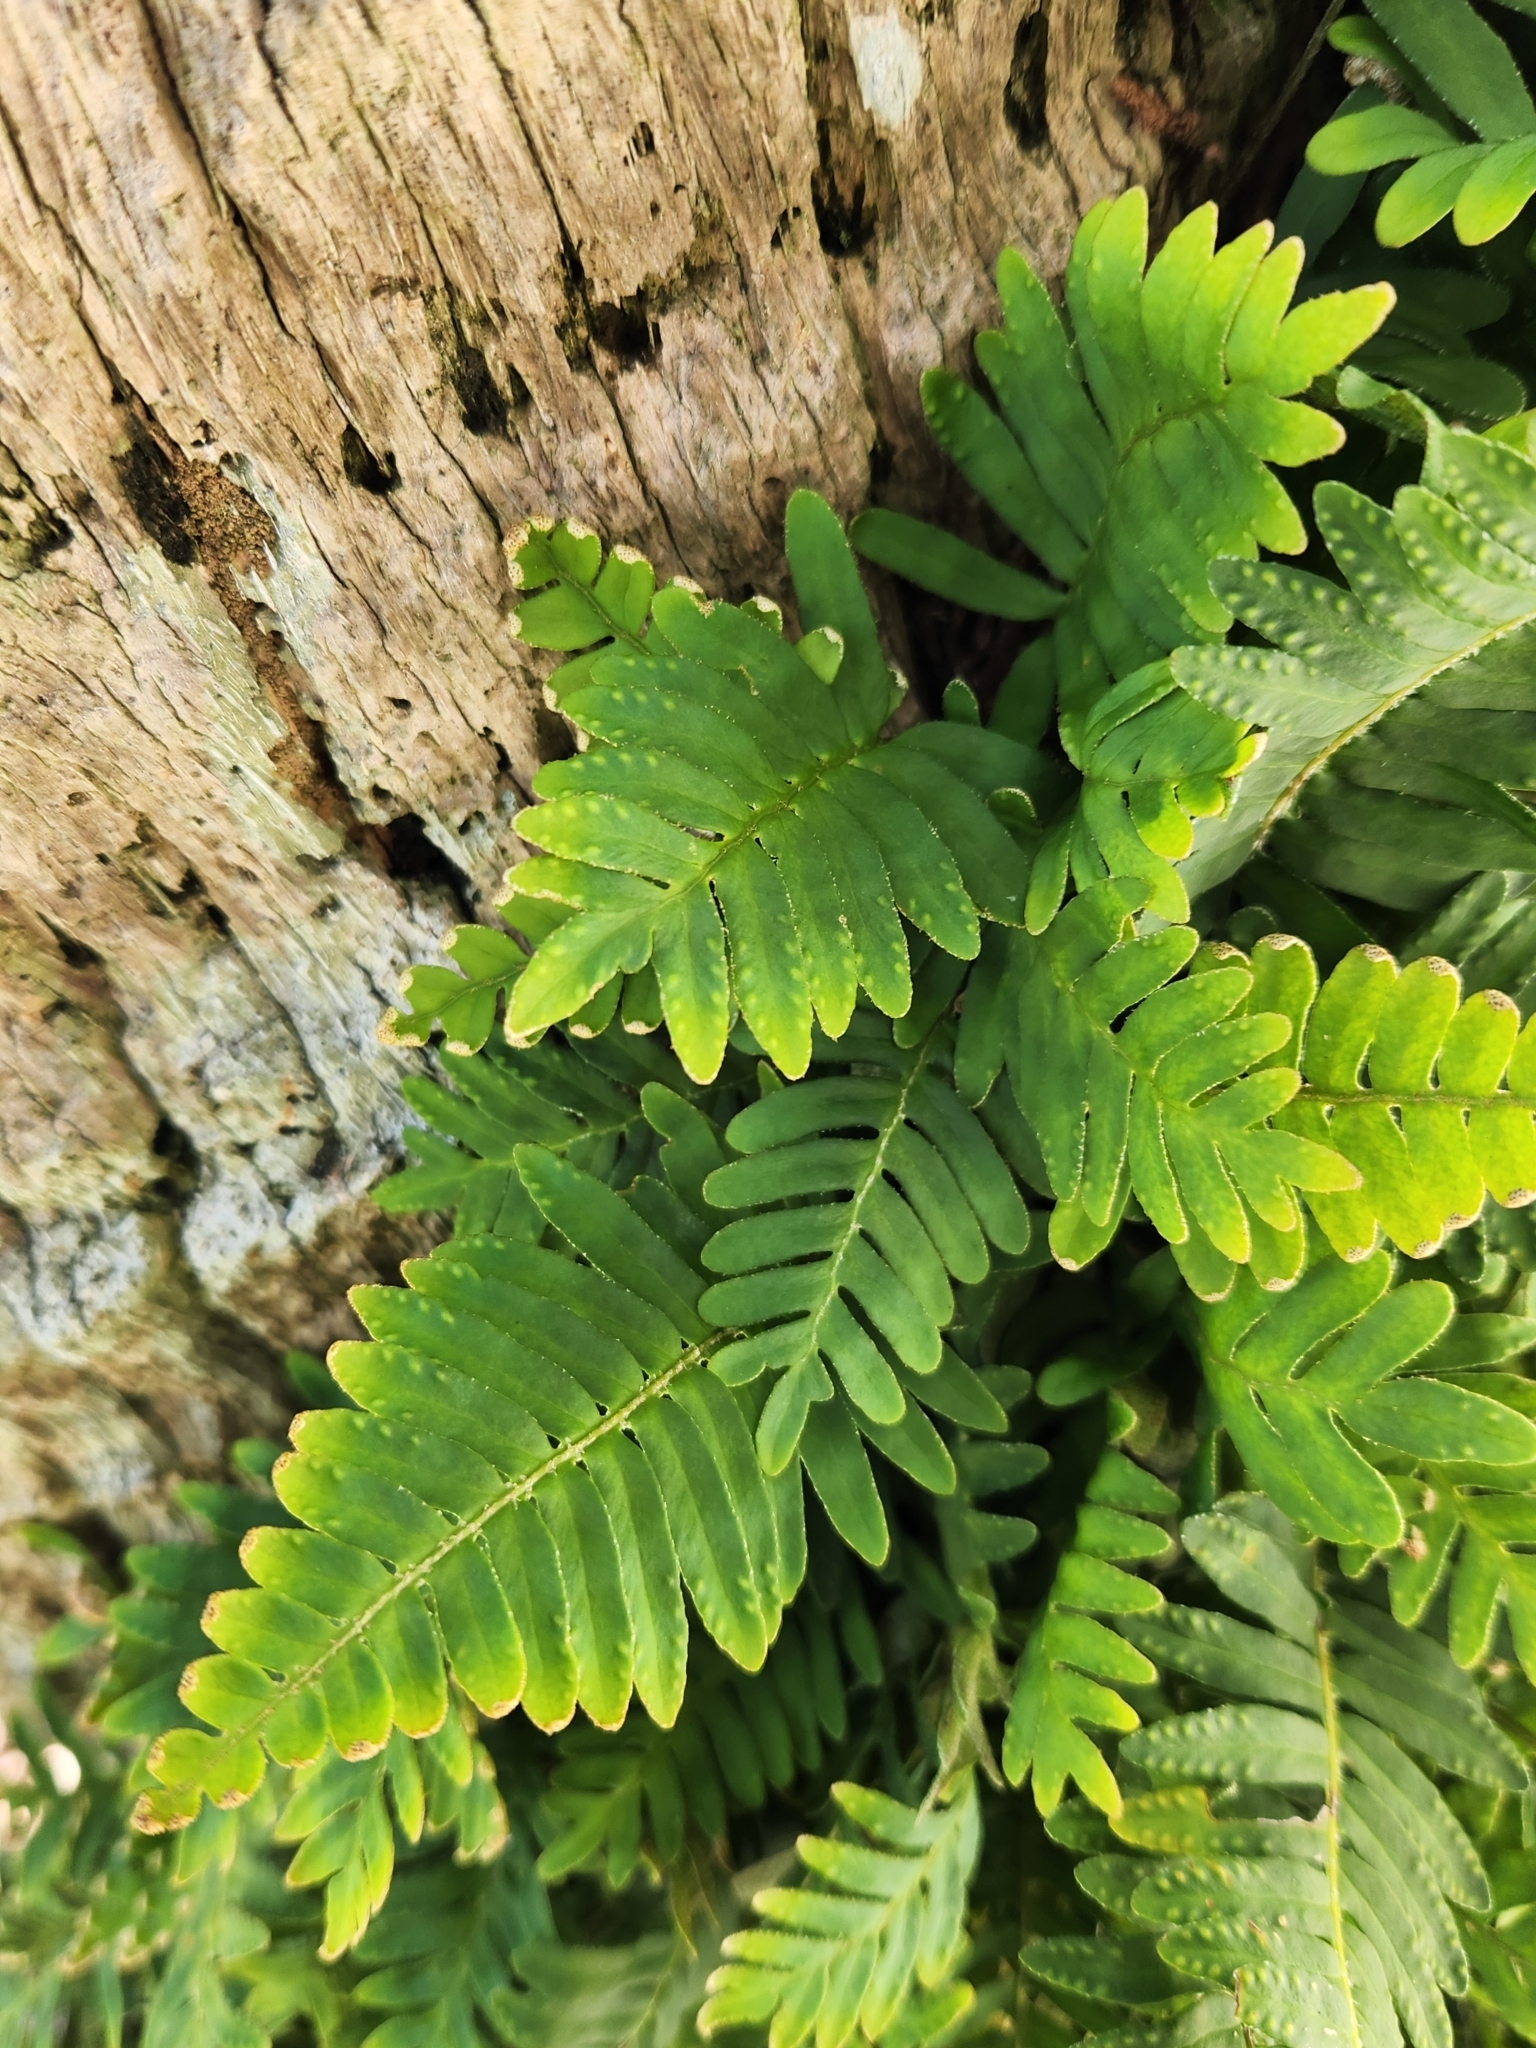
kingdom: Plantae
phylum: Tracheophyta
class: Polypodiopsida
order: Polypodiales
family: Polypodiaceae
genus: Pleopeltis
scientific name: Pleopeltis michauxiana
